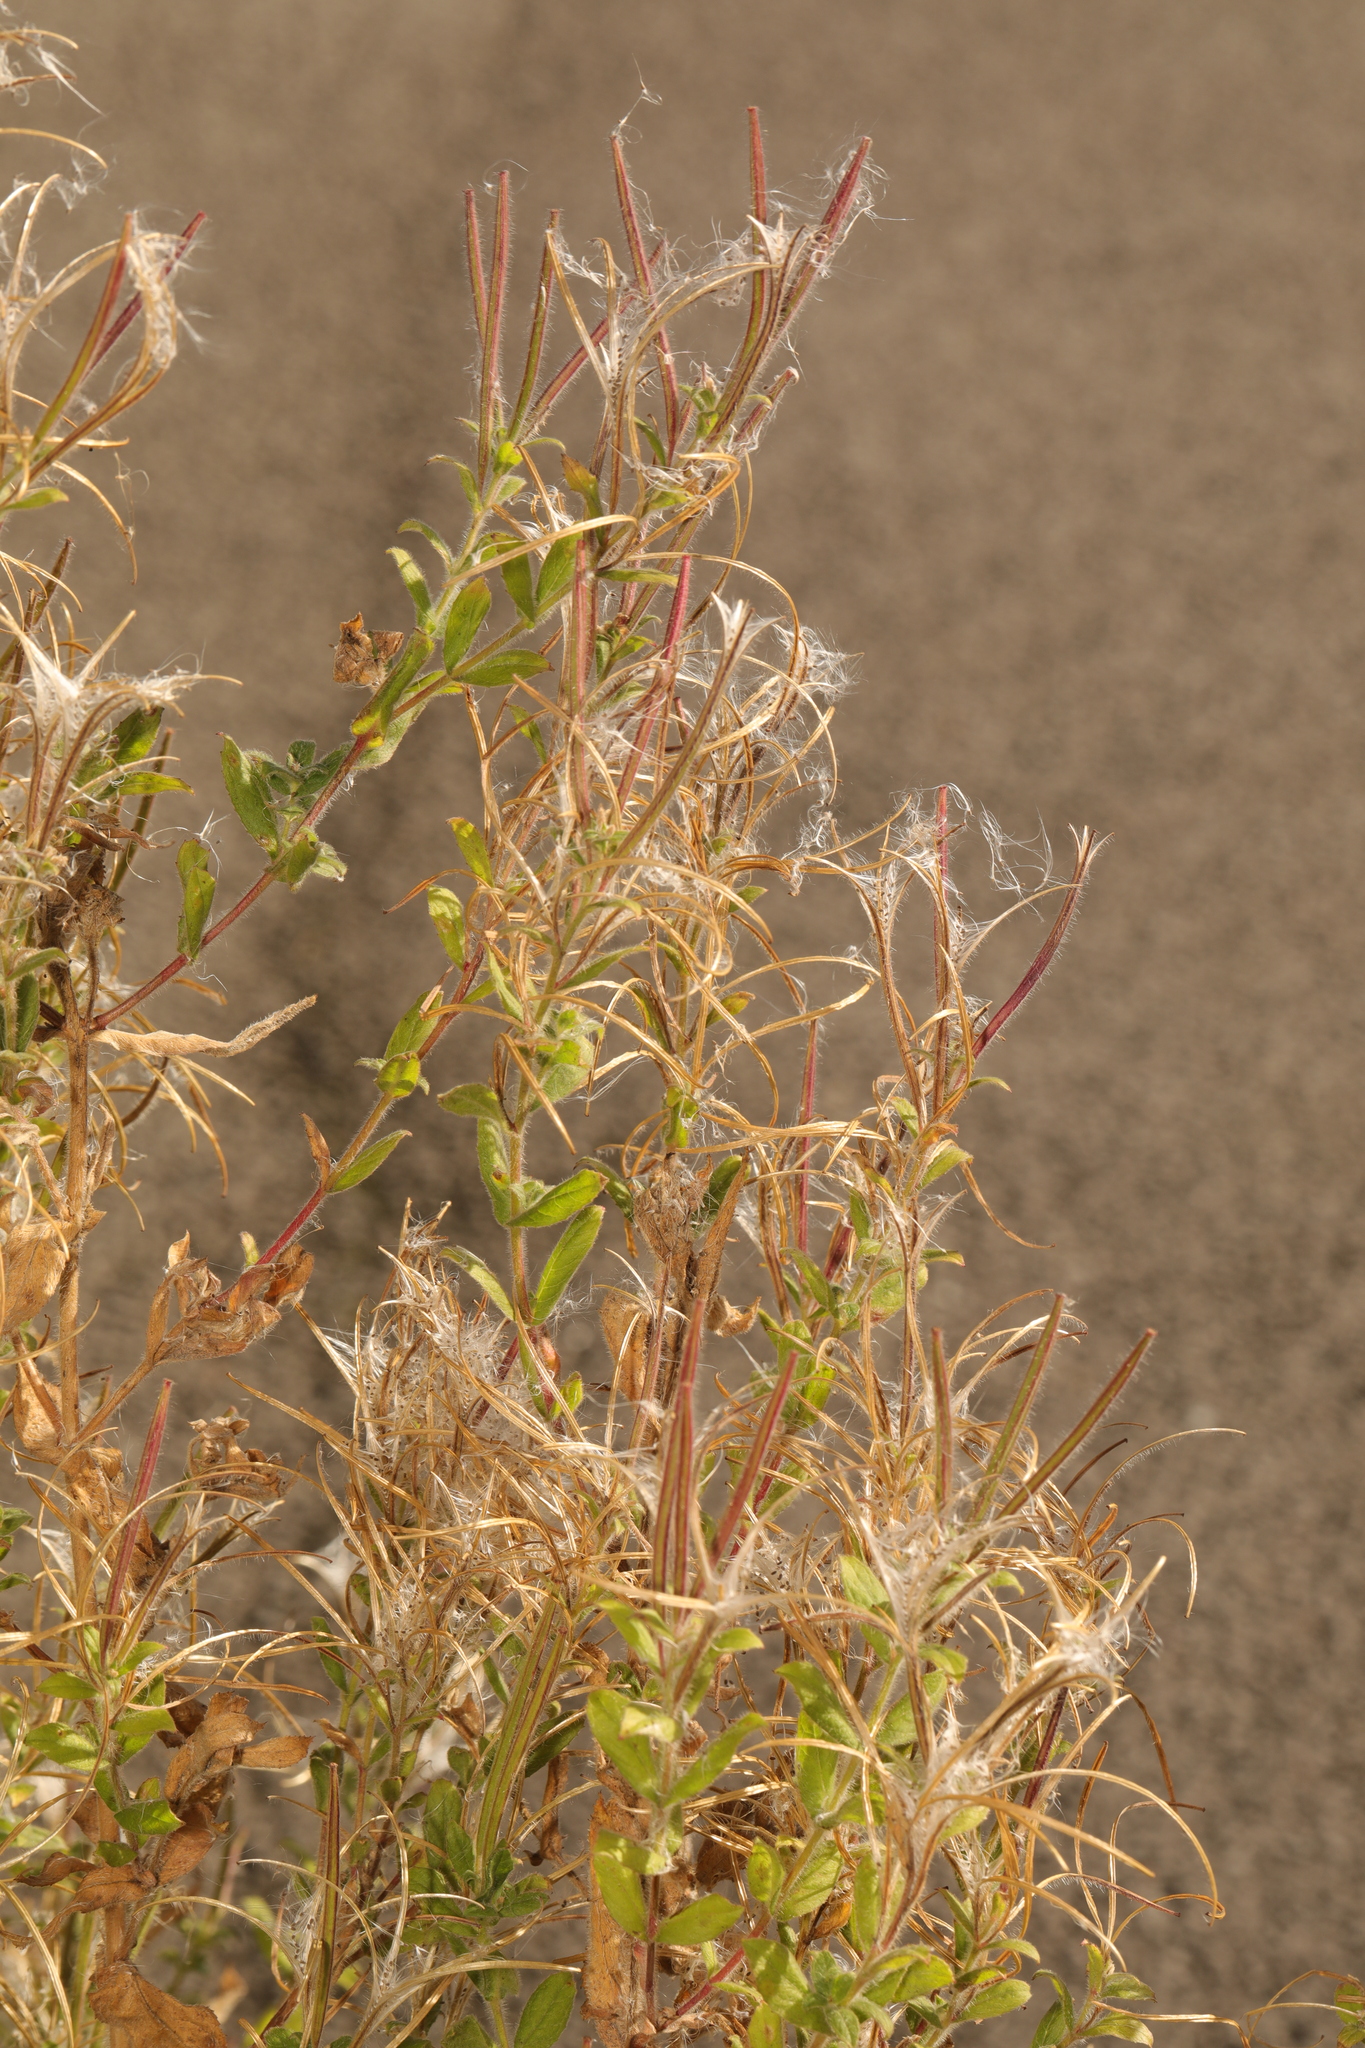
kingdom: Plantae
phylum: Tracheophyta
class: Magnoliopsida
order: Myrtales
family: Onagraceae
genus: Epilobium
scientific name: Epilobium hirsutum
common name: Great willowherb
